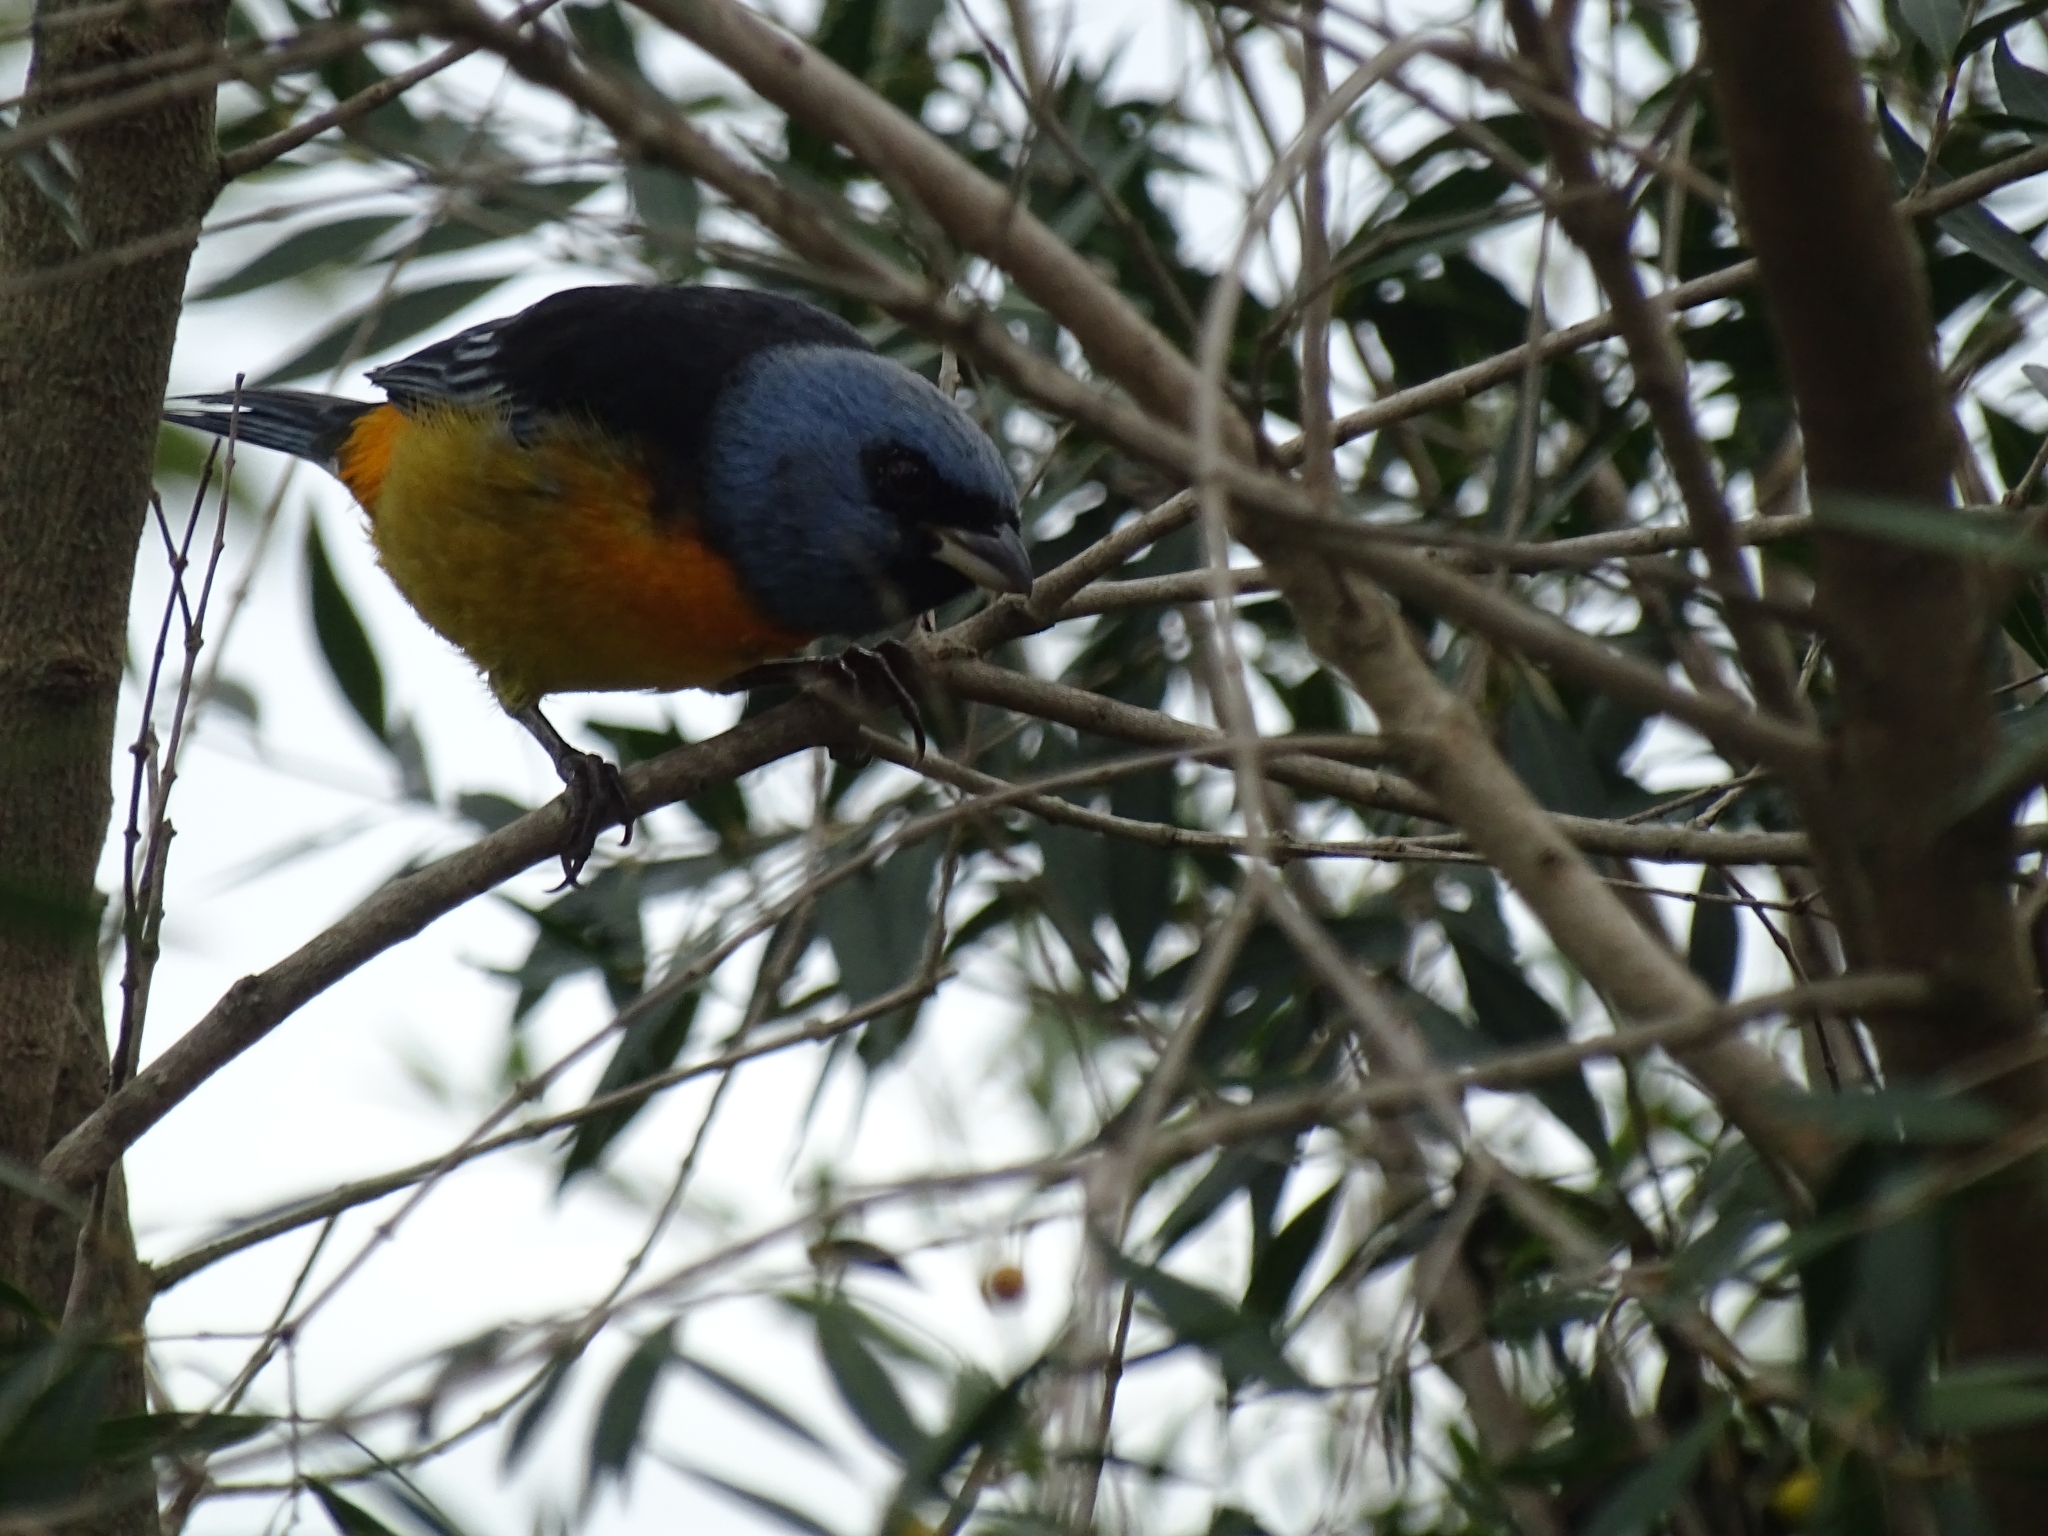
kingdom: Animalia
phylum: Chordata
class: Aves
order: Passeriformes
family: Thraupidae
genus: Rauenia
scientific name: Rauenia bonariensis
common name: Blue-and-yellow tanager
